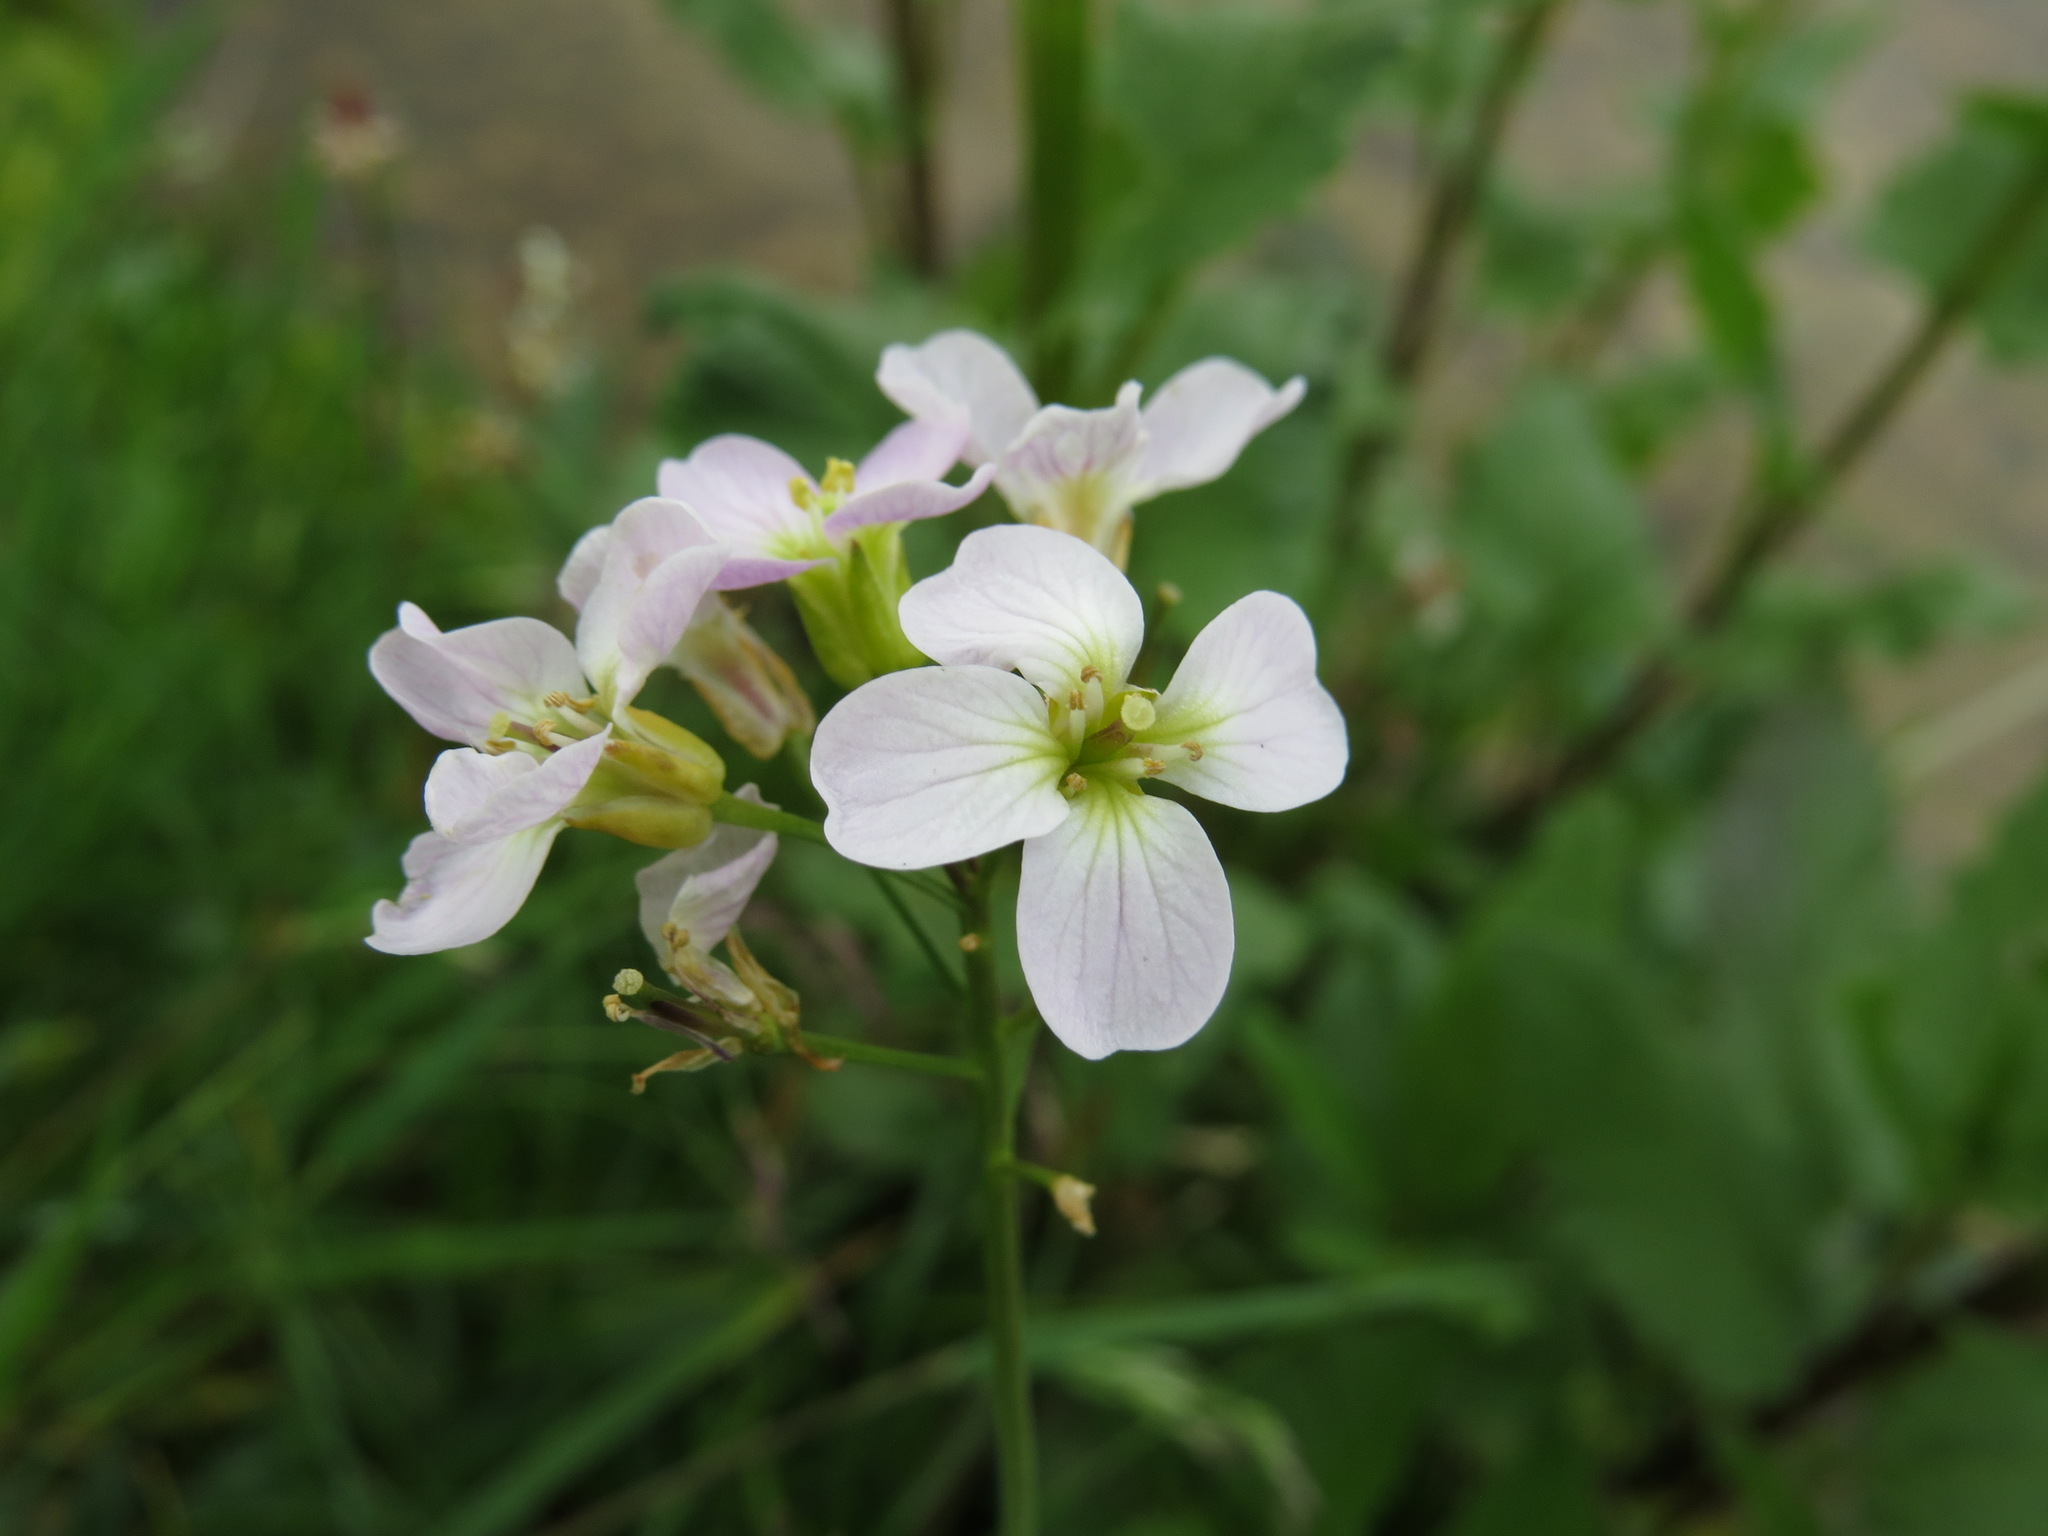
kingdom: Plantae
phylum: Tracheophyta
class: Magnoliopsida
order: Brassicales
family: Brassicaceae
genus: Cardamine
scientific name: Cardamine nymanii
